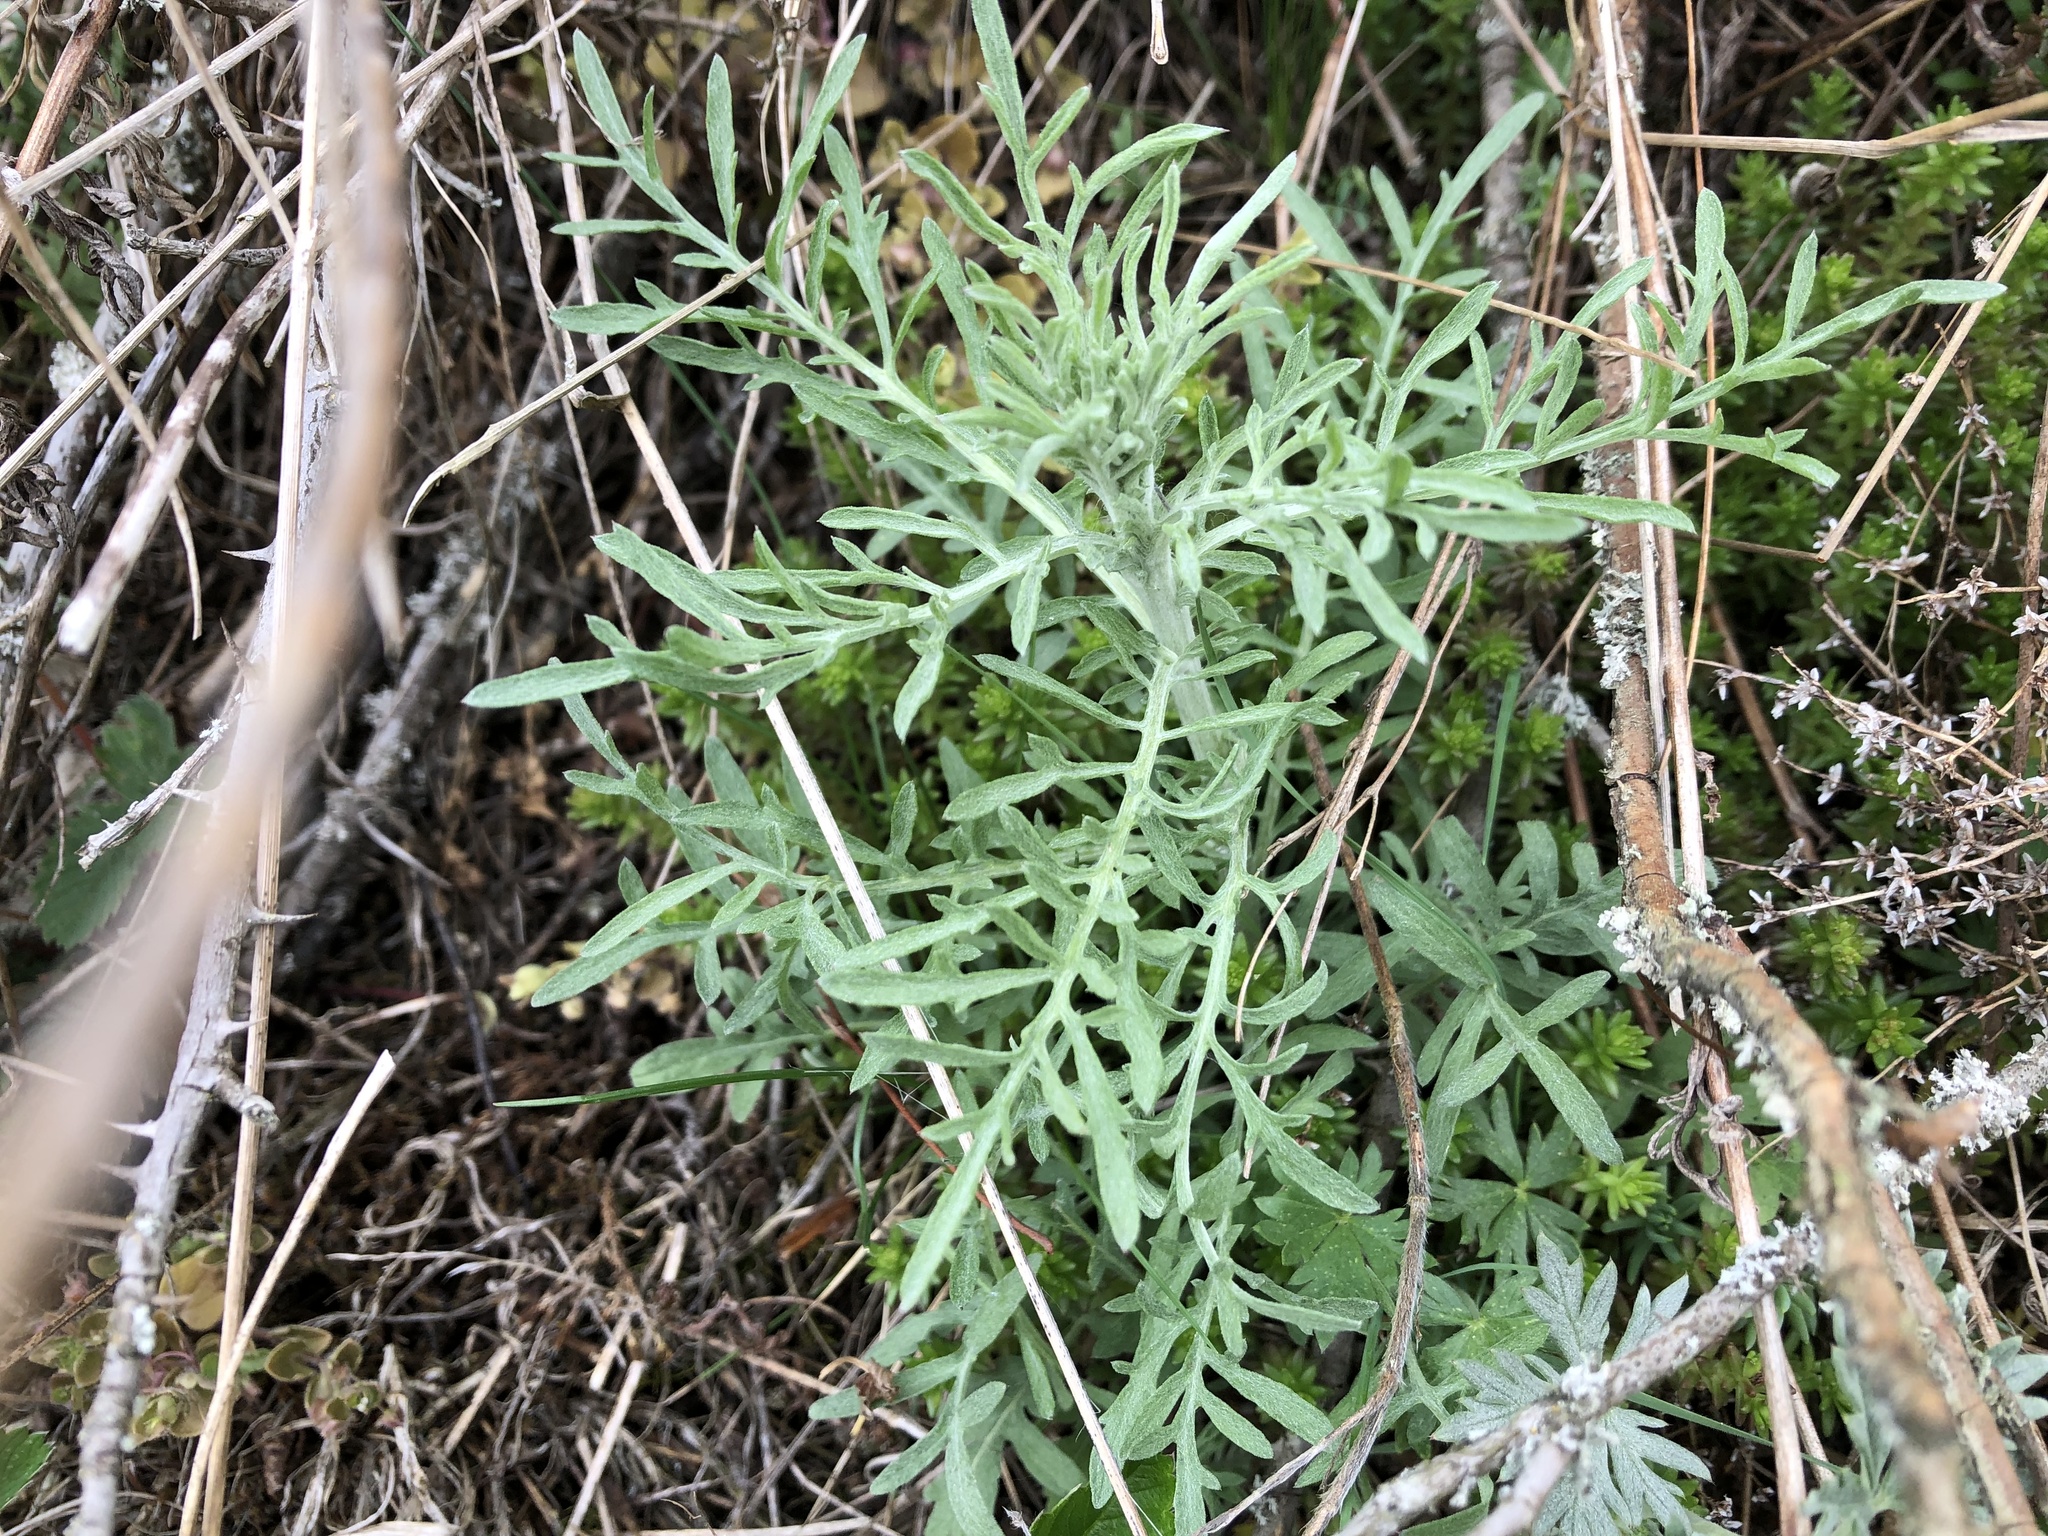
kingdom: Plantae
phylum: Tracheophyta
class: Magnoliopsida
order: Asterales
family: Asteraceae
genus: Centaurea
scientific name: Centaurea stoebe
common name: Spotted knapweed
